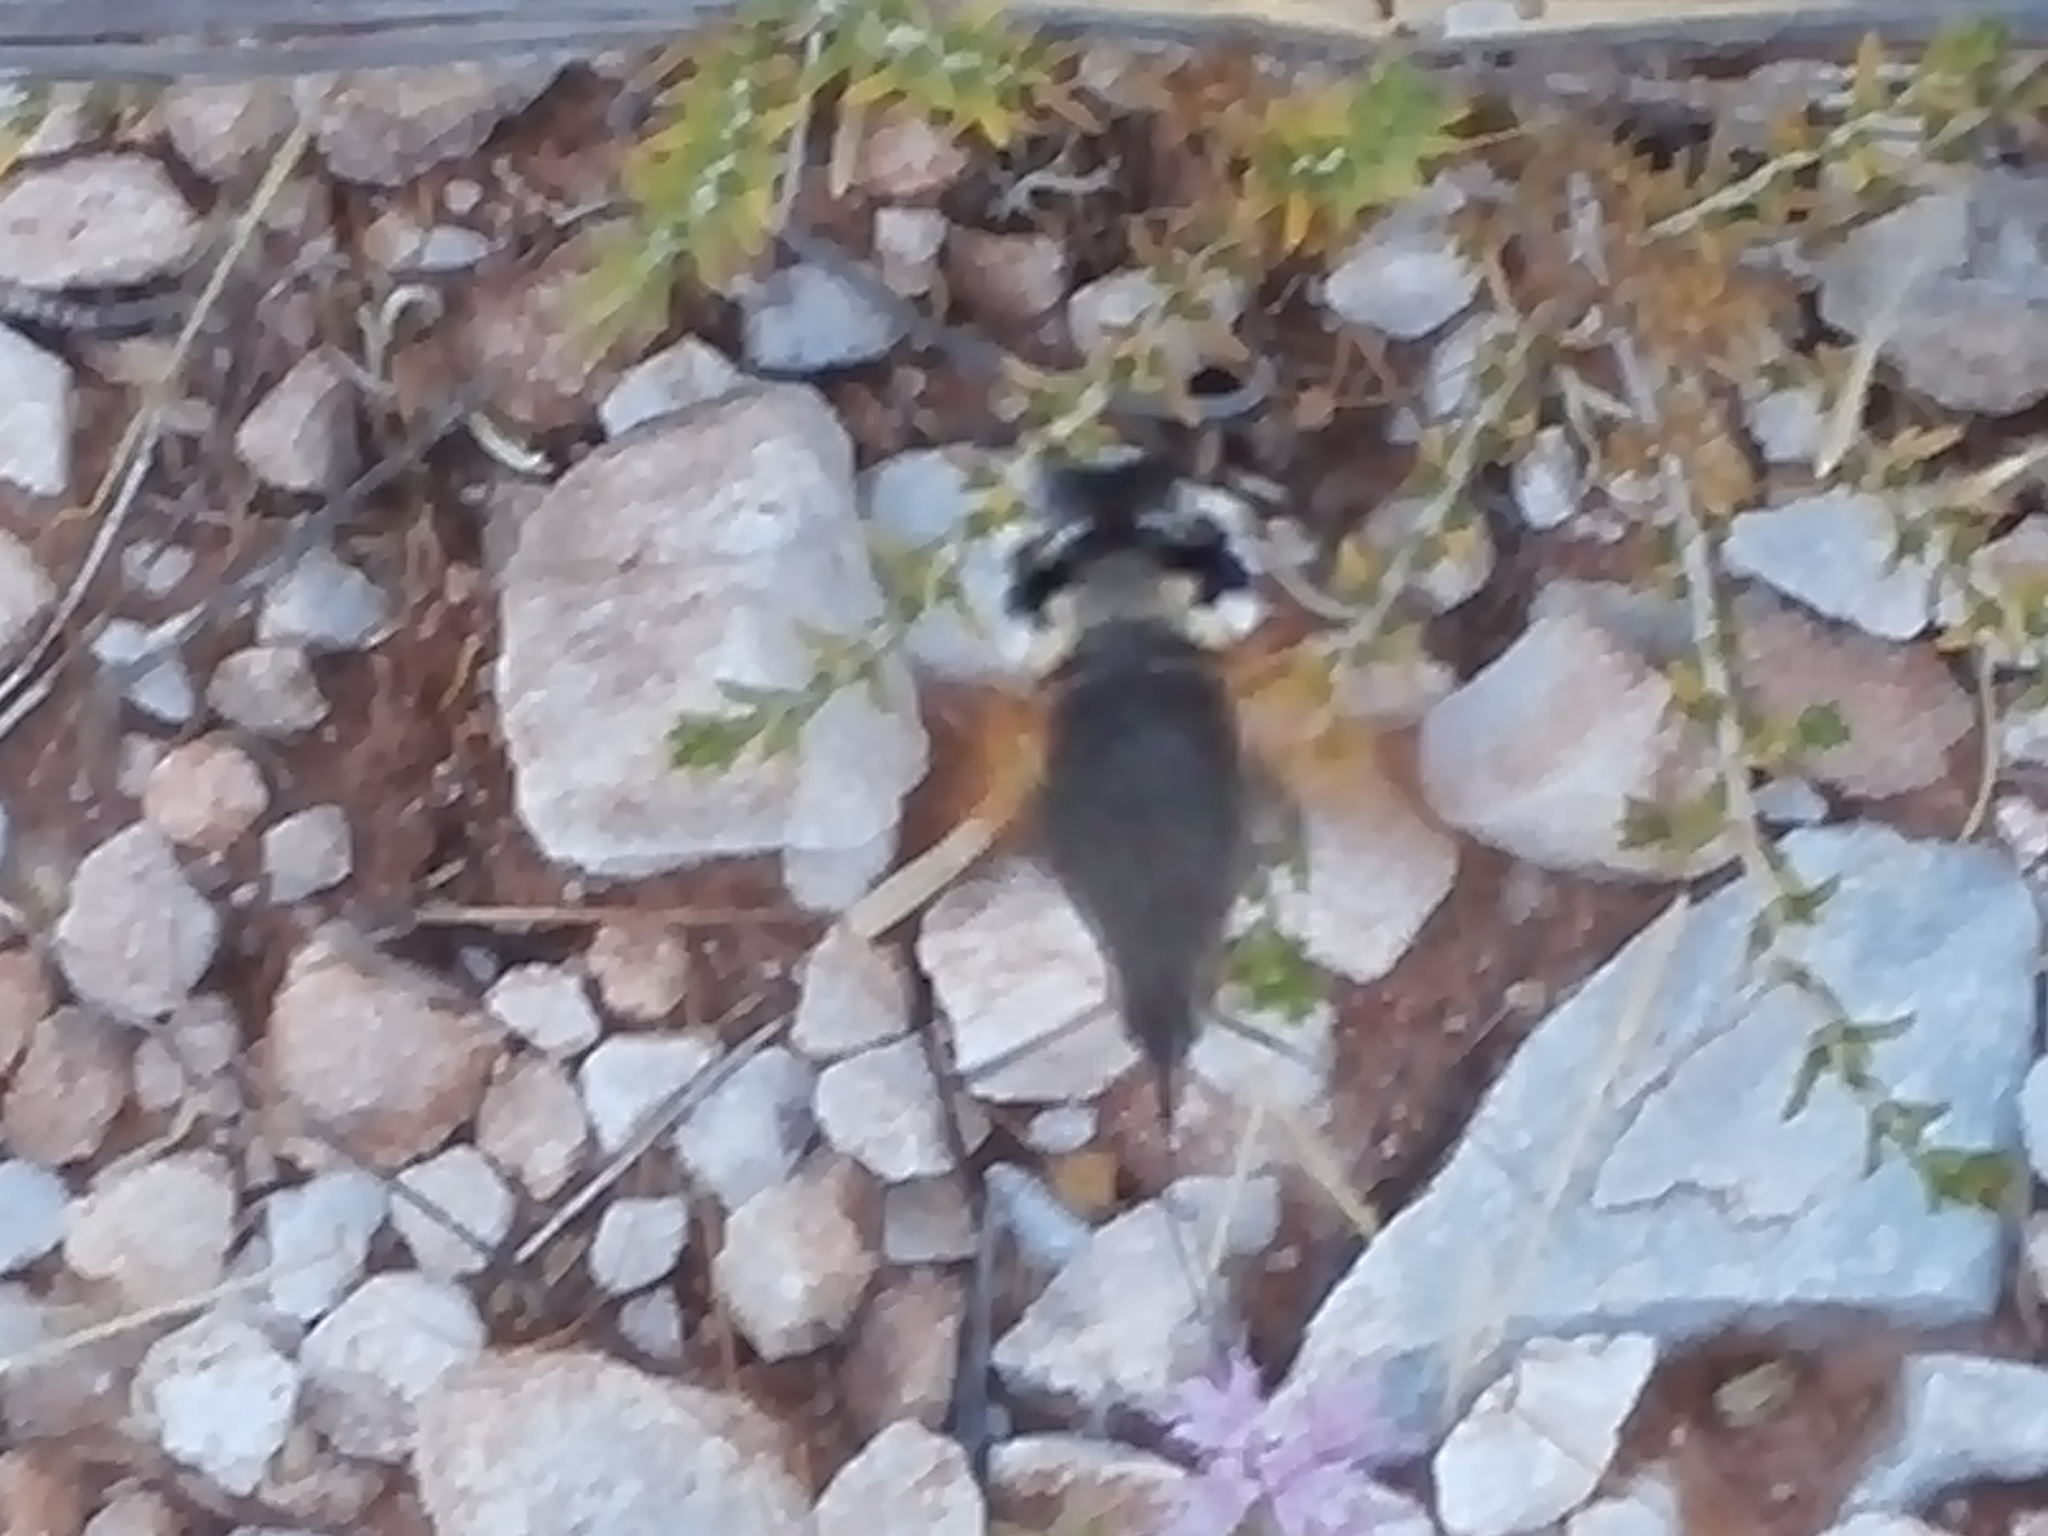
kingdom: Animalia
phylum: Arthropoda
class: Insecta
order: Lepidoptera
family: Sphingidae
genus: Macroglossum
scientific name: Macroglossum stellatarum
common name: Humming-bird hawk-moth
